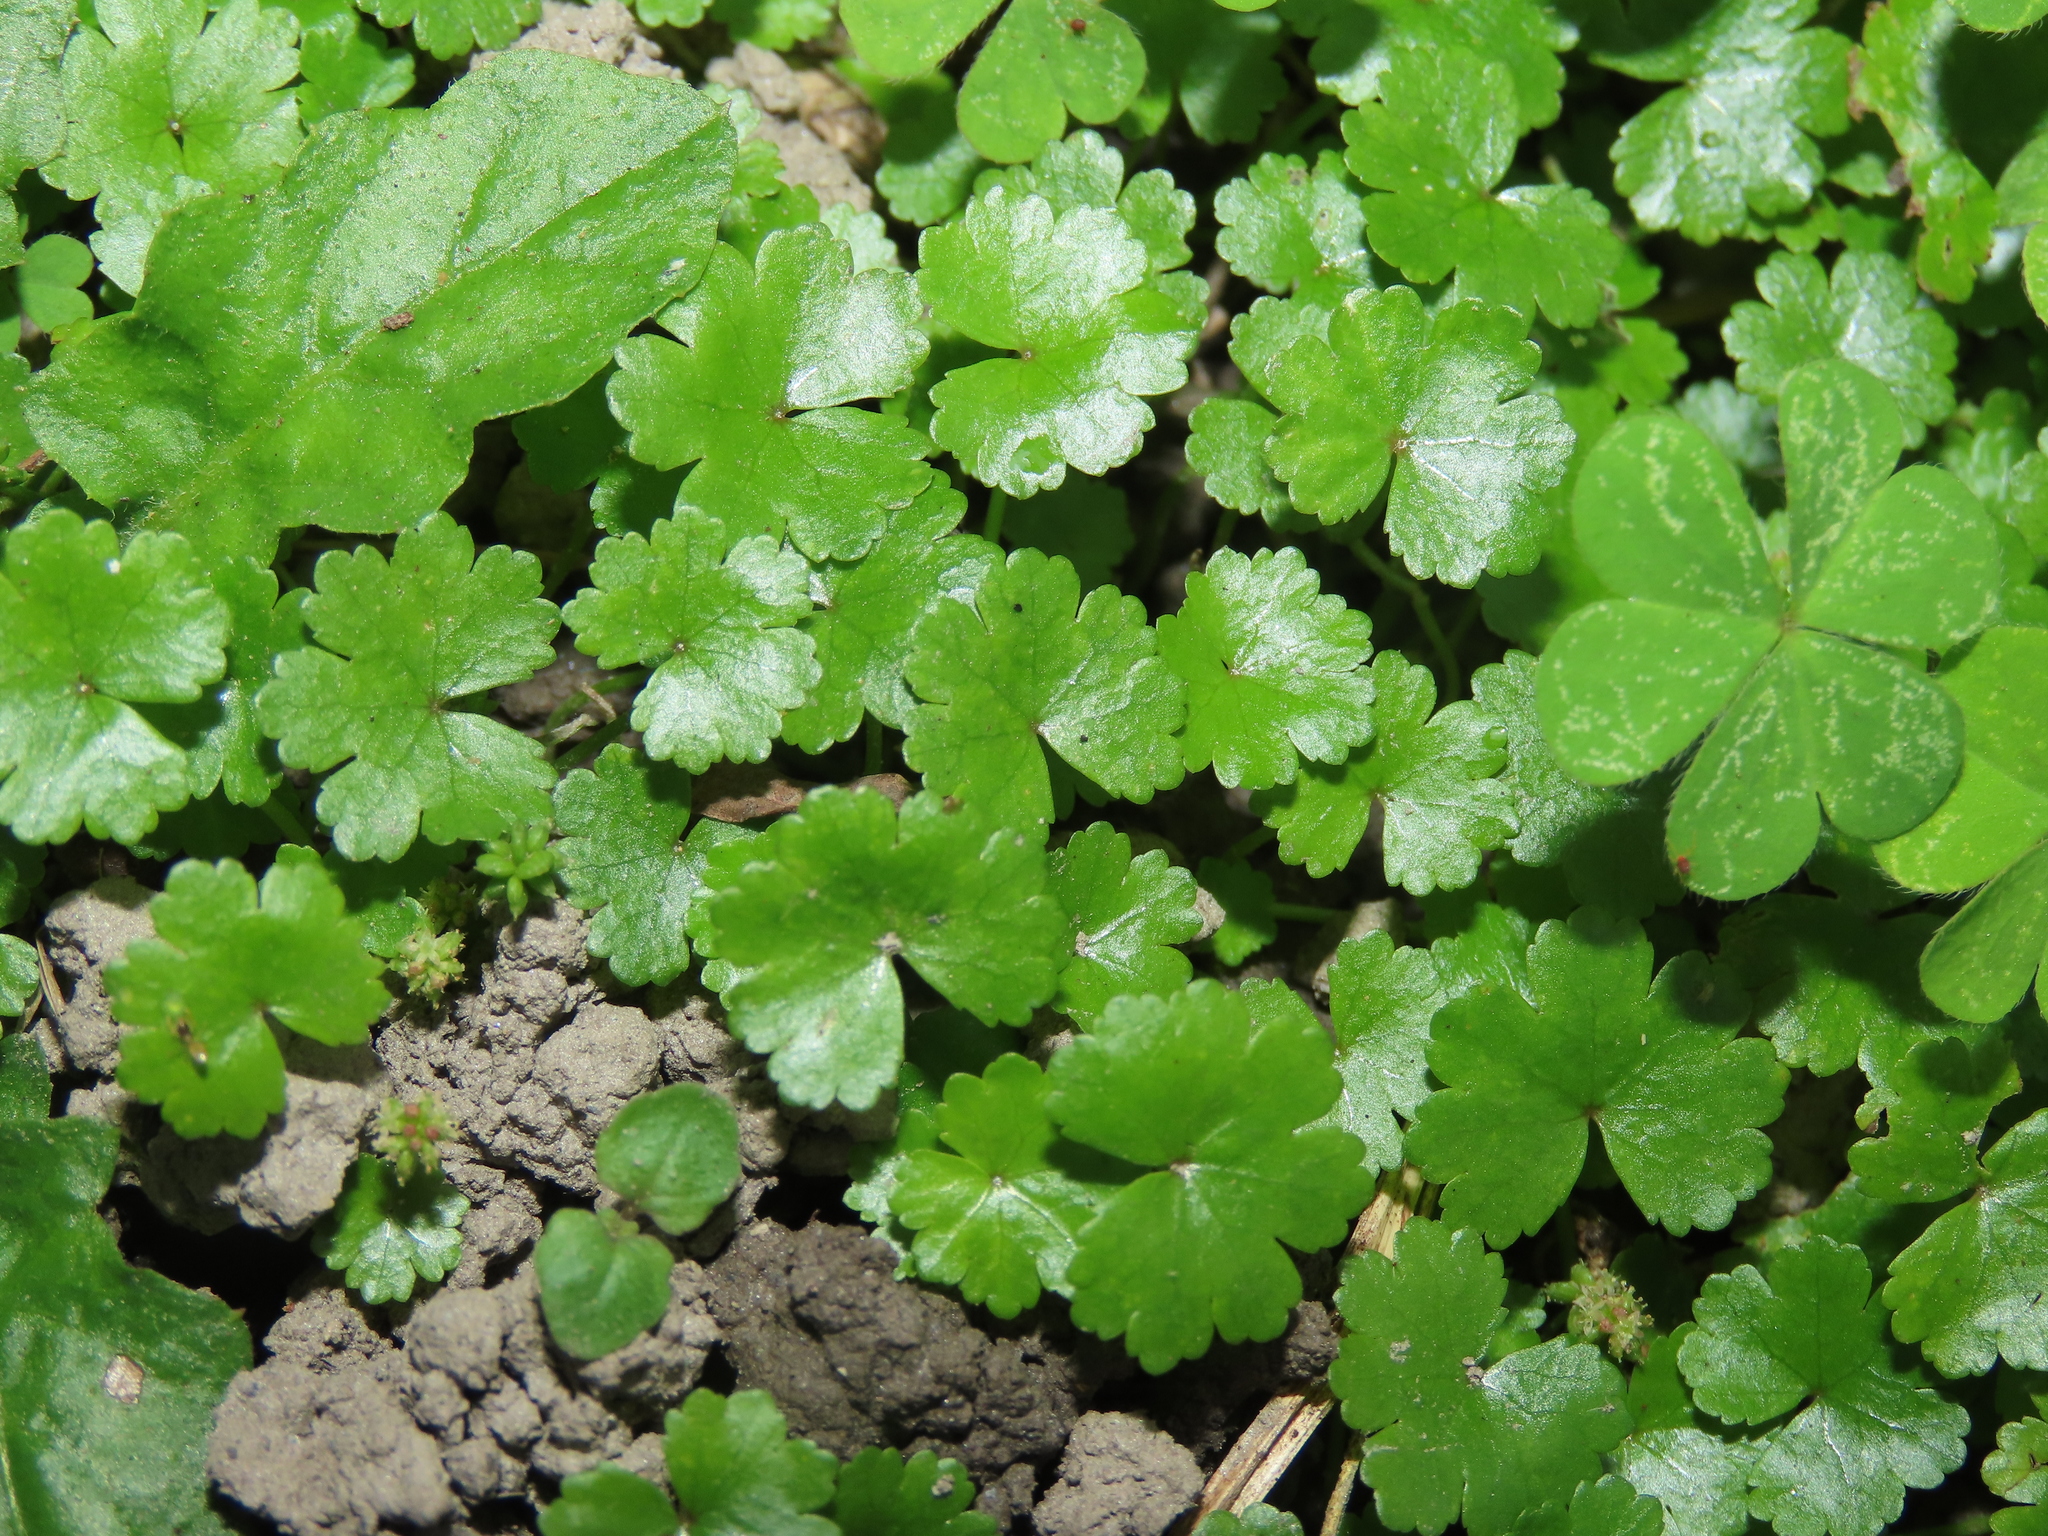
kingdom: Plantae
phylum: Tracheophyta
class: Magnoliopsida
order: Apiales
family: Araliaceae
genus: Hydrocotyle
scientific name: Hydrocotyle sibthorpioides
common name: Lawn marshpennywort
